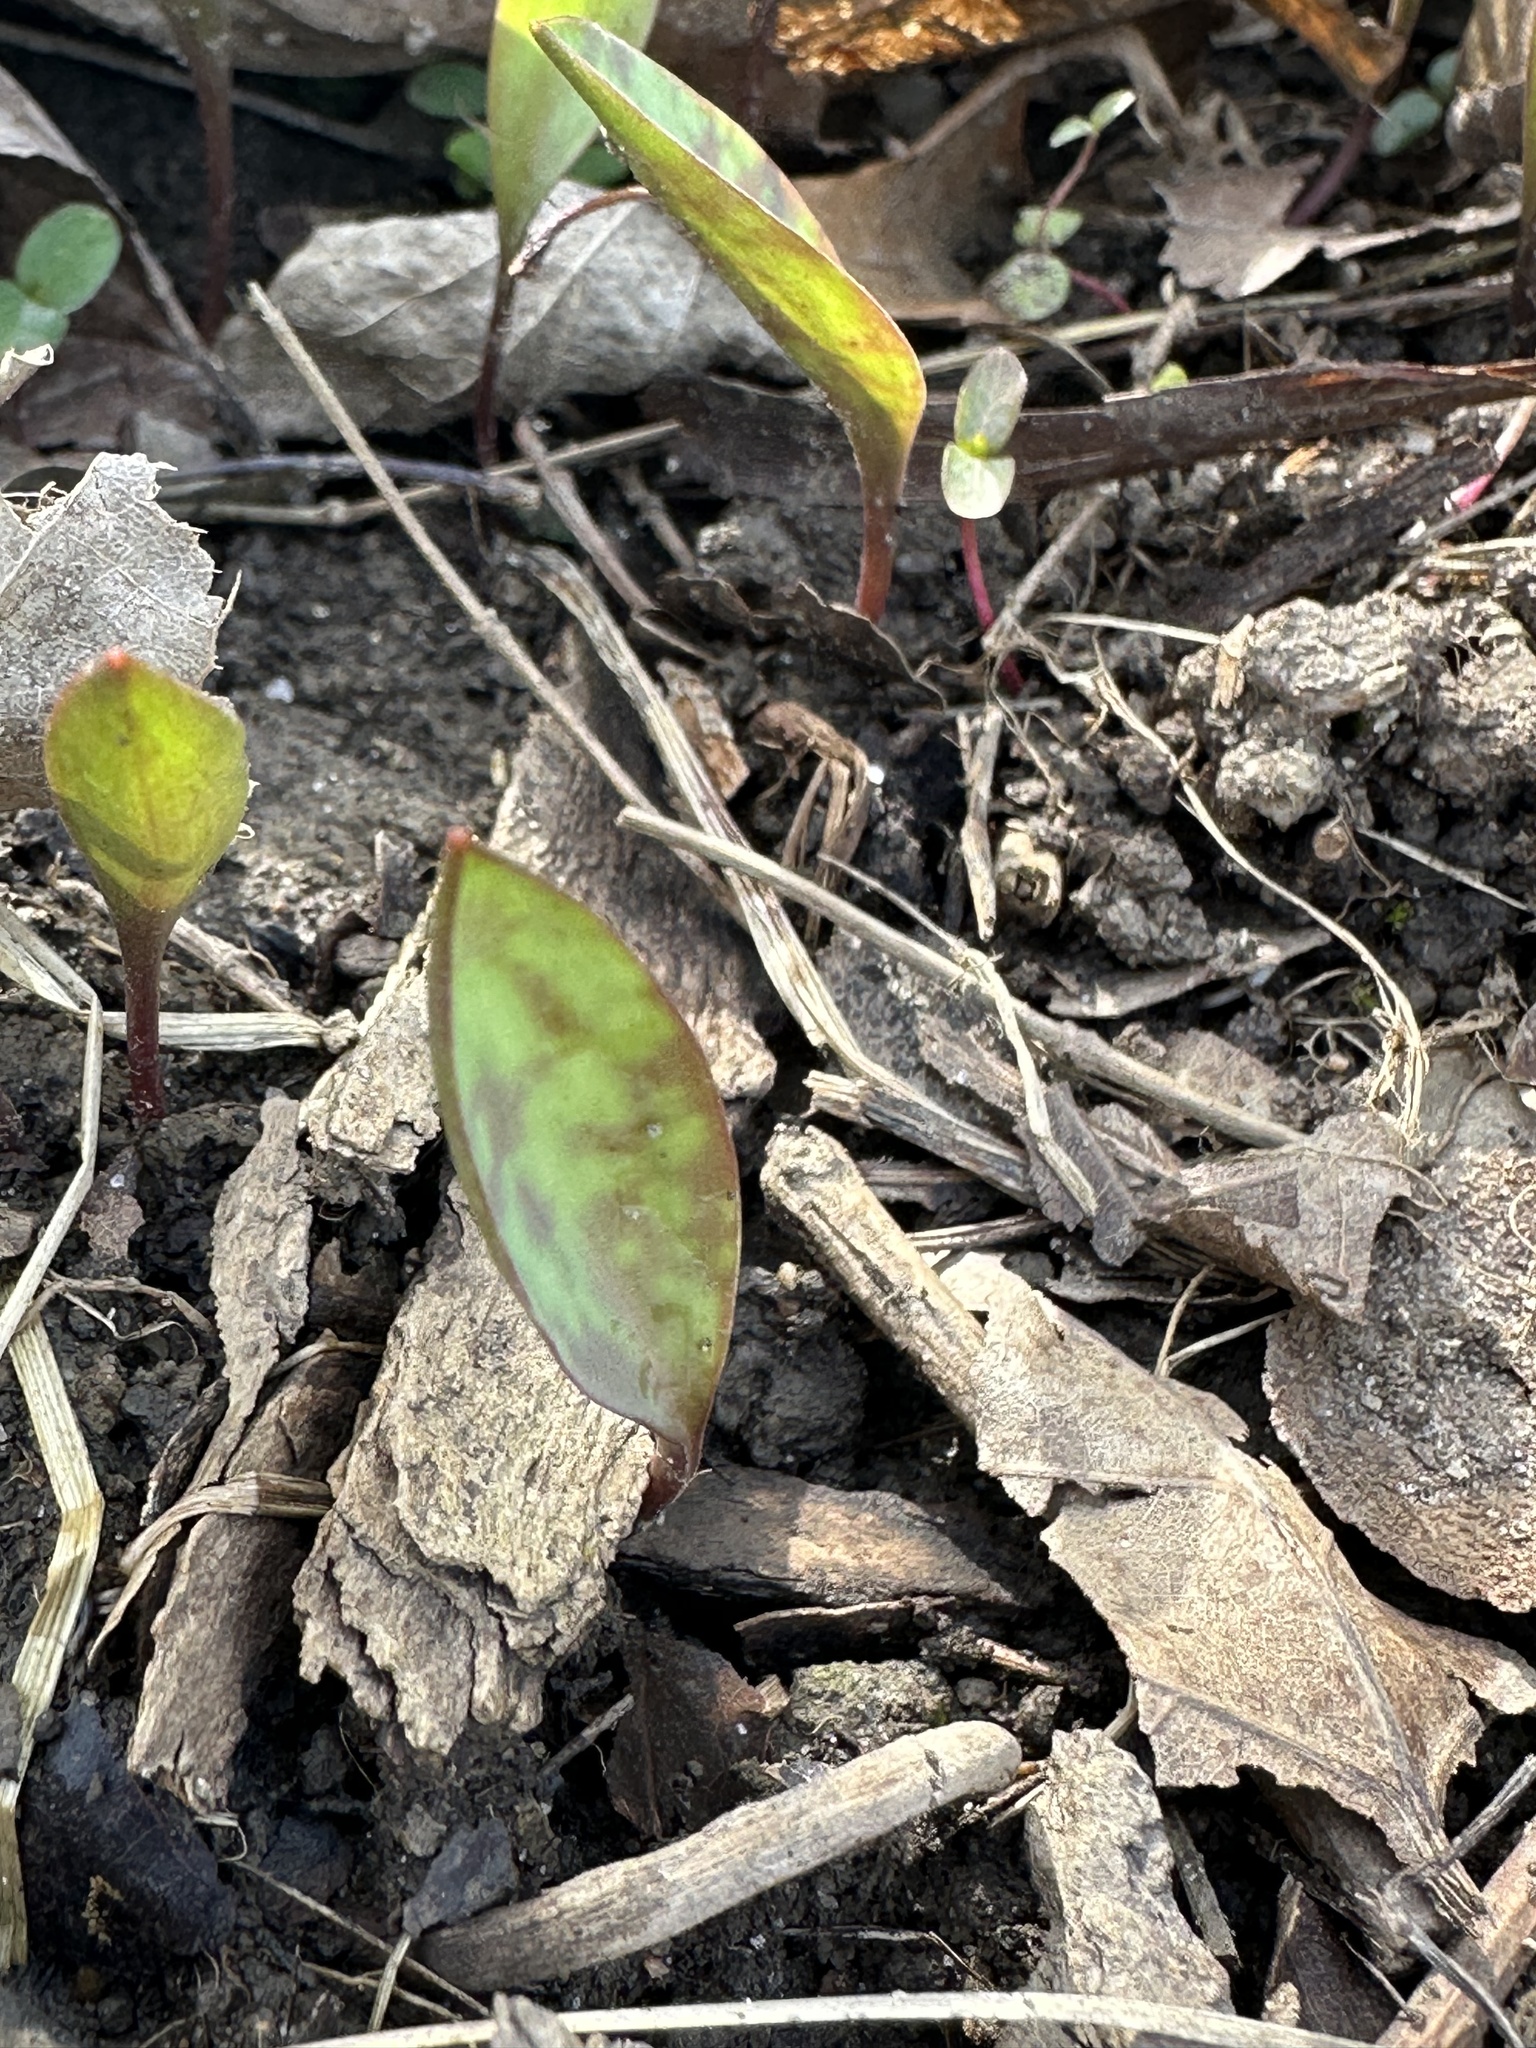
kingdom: Plantae
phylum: Tracheophyta
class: Liliopsida
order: Liliales
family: Liliaceae
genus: Erythronium
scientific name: Erythronium americanum
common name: Yellow adder's-tongue
